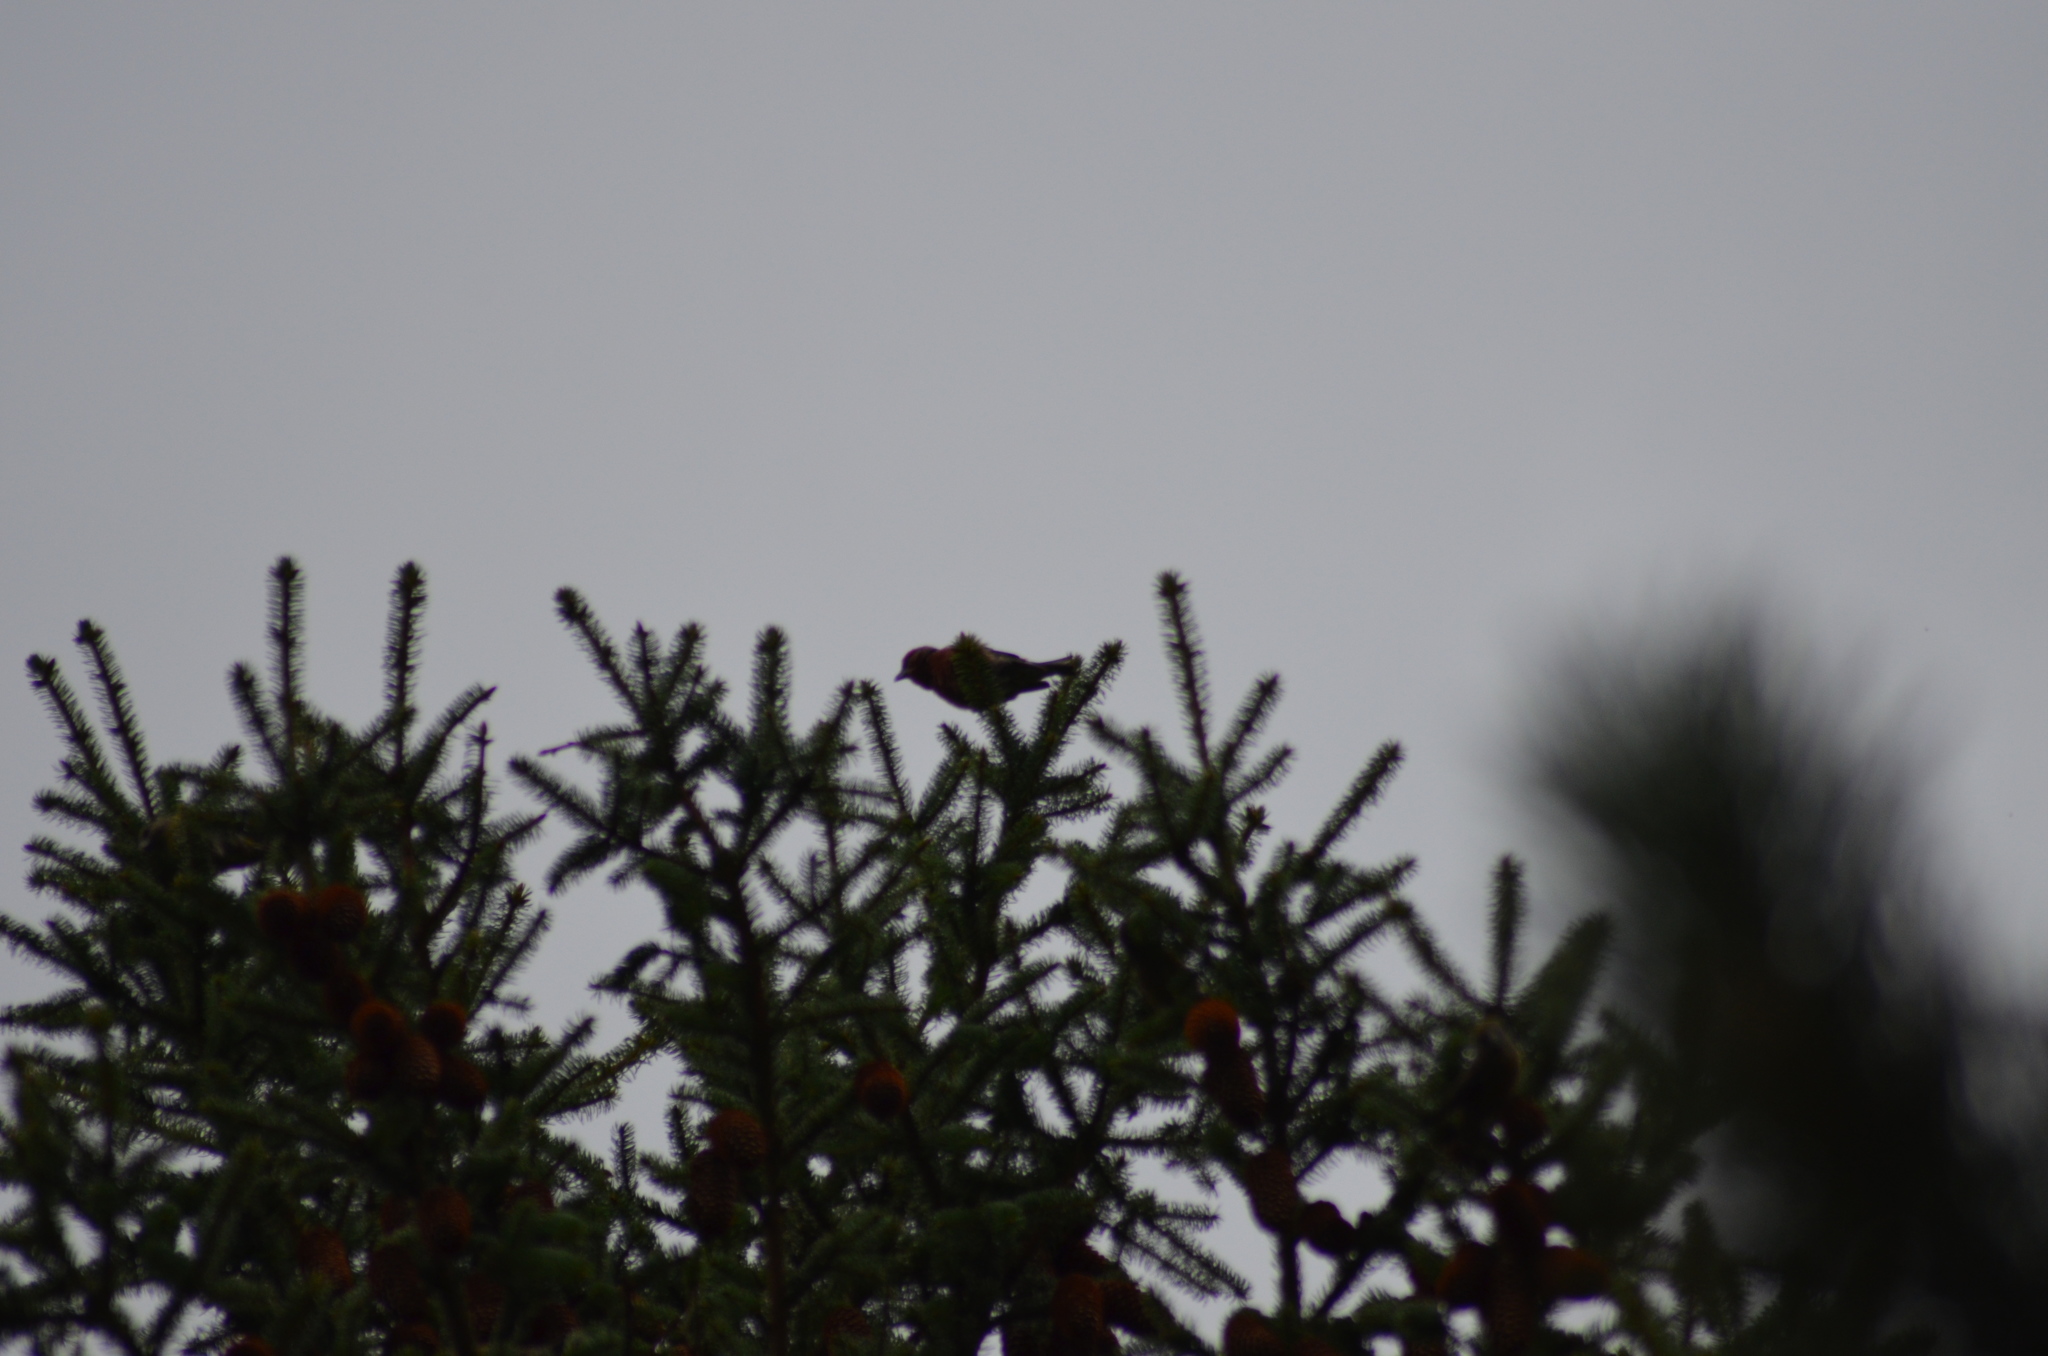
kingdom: Animalia
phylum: Chordata
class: Aves
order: Passeriformes
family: Fringillidae
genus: Loxia
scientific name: Loxia curvirostra
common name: Red crossbill
